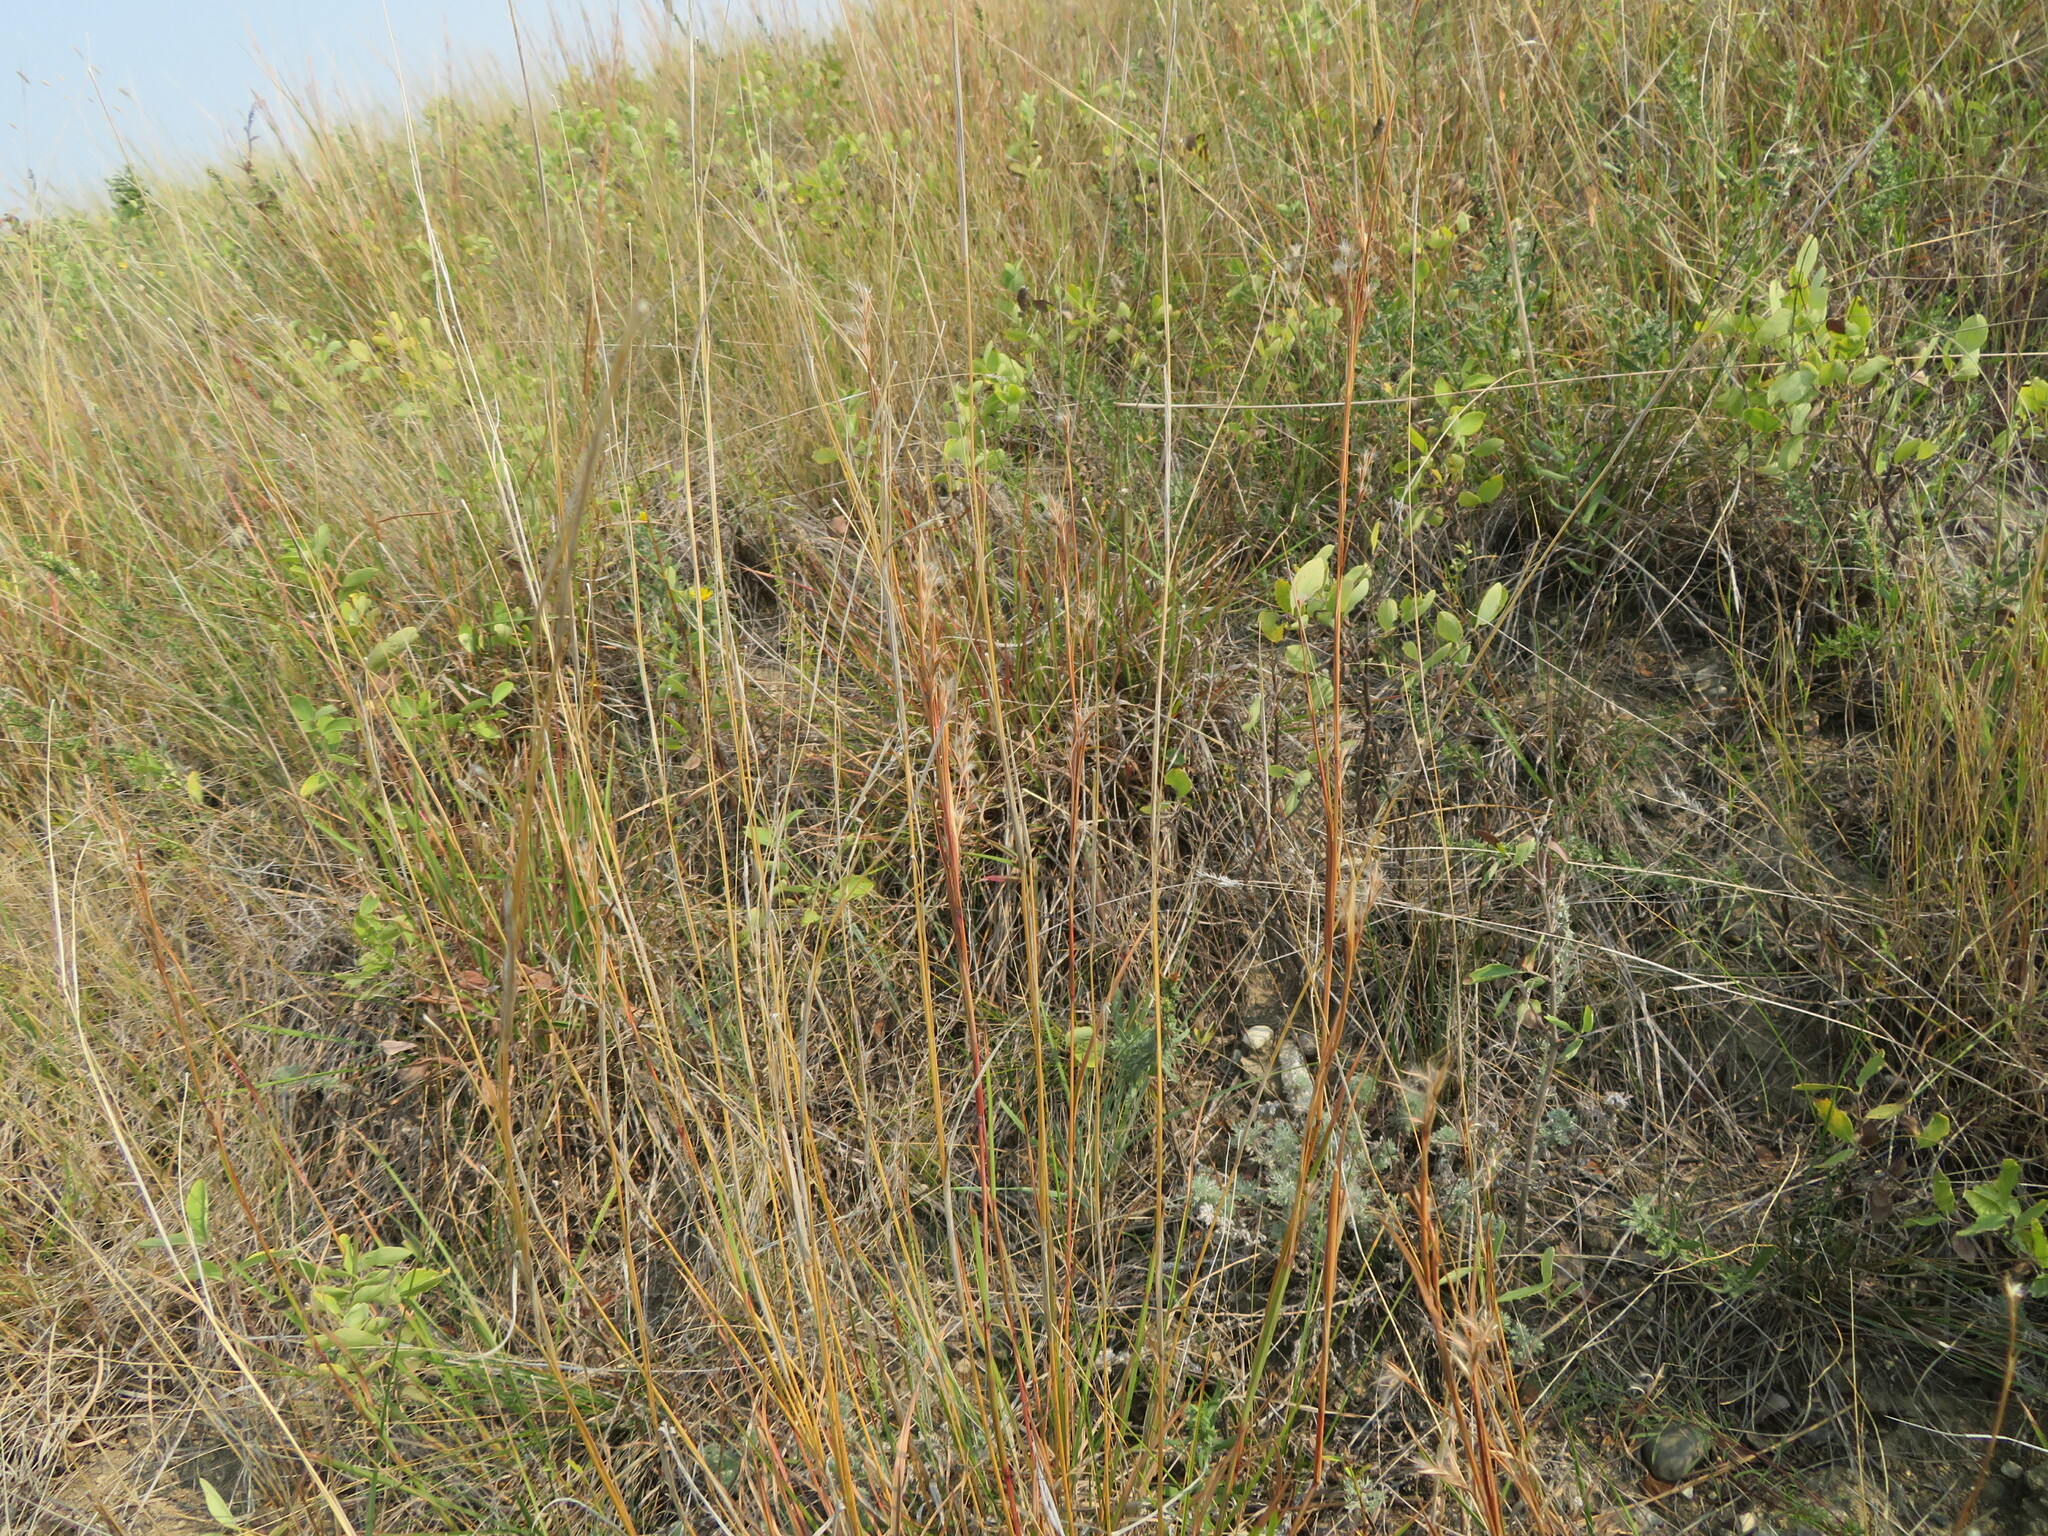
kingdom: Plantae
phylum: Tracheophyta
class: Liliopsida
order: Poales
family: Poaceae
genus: Schizachyrium
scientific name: Schizachyrium scoparium
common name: Little bluestem
